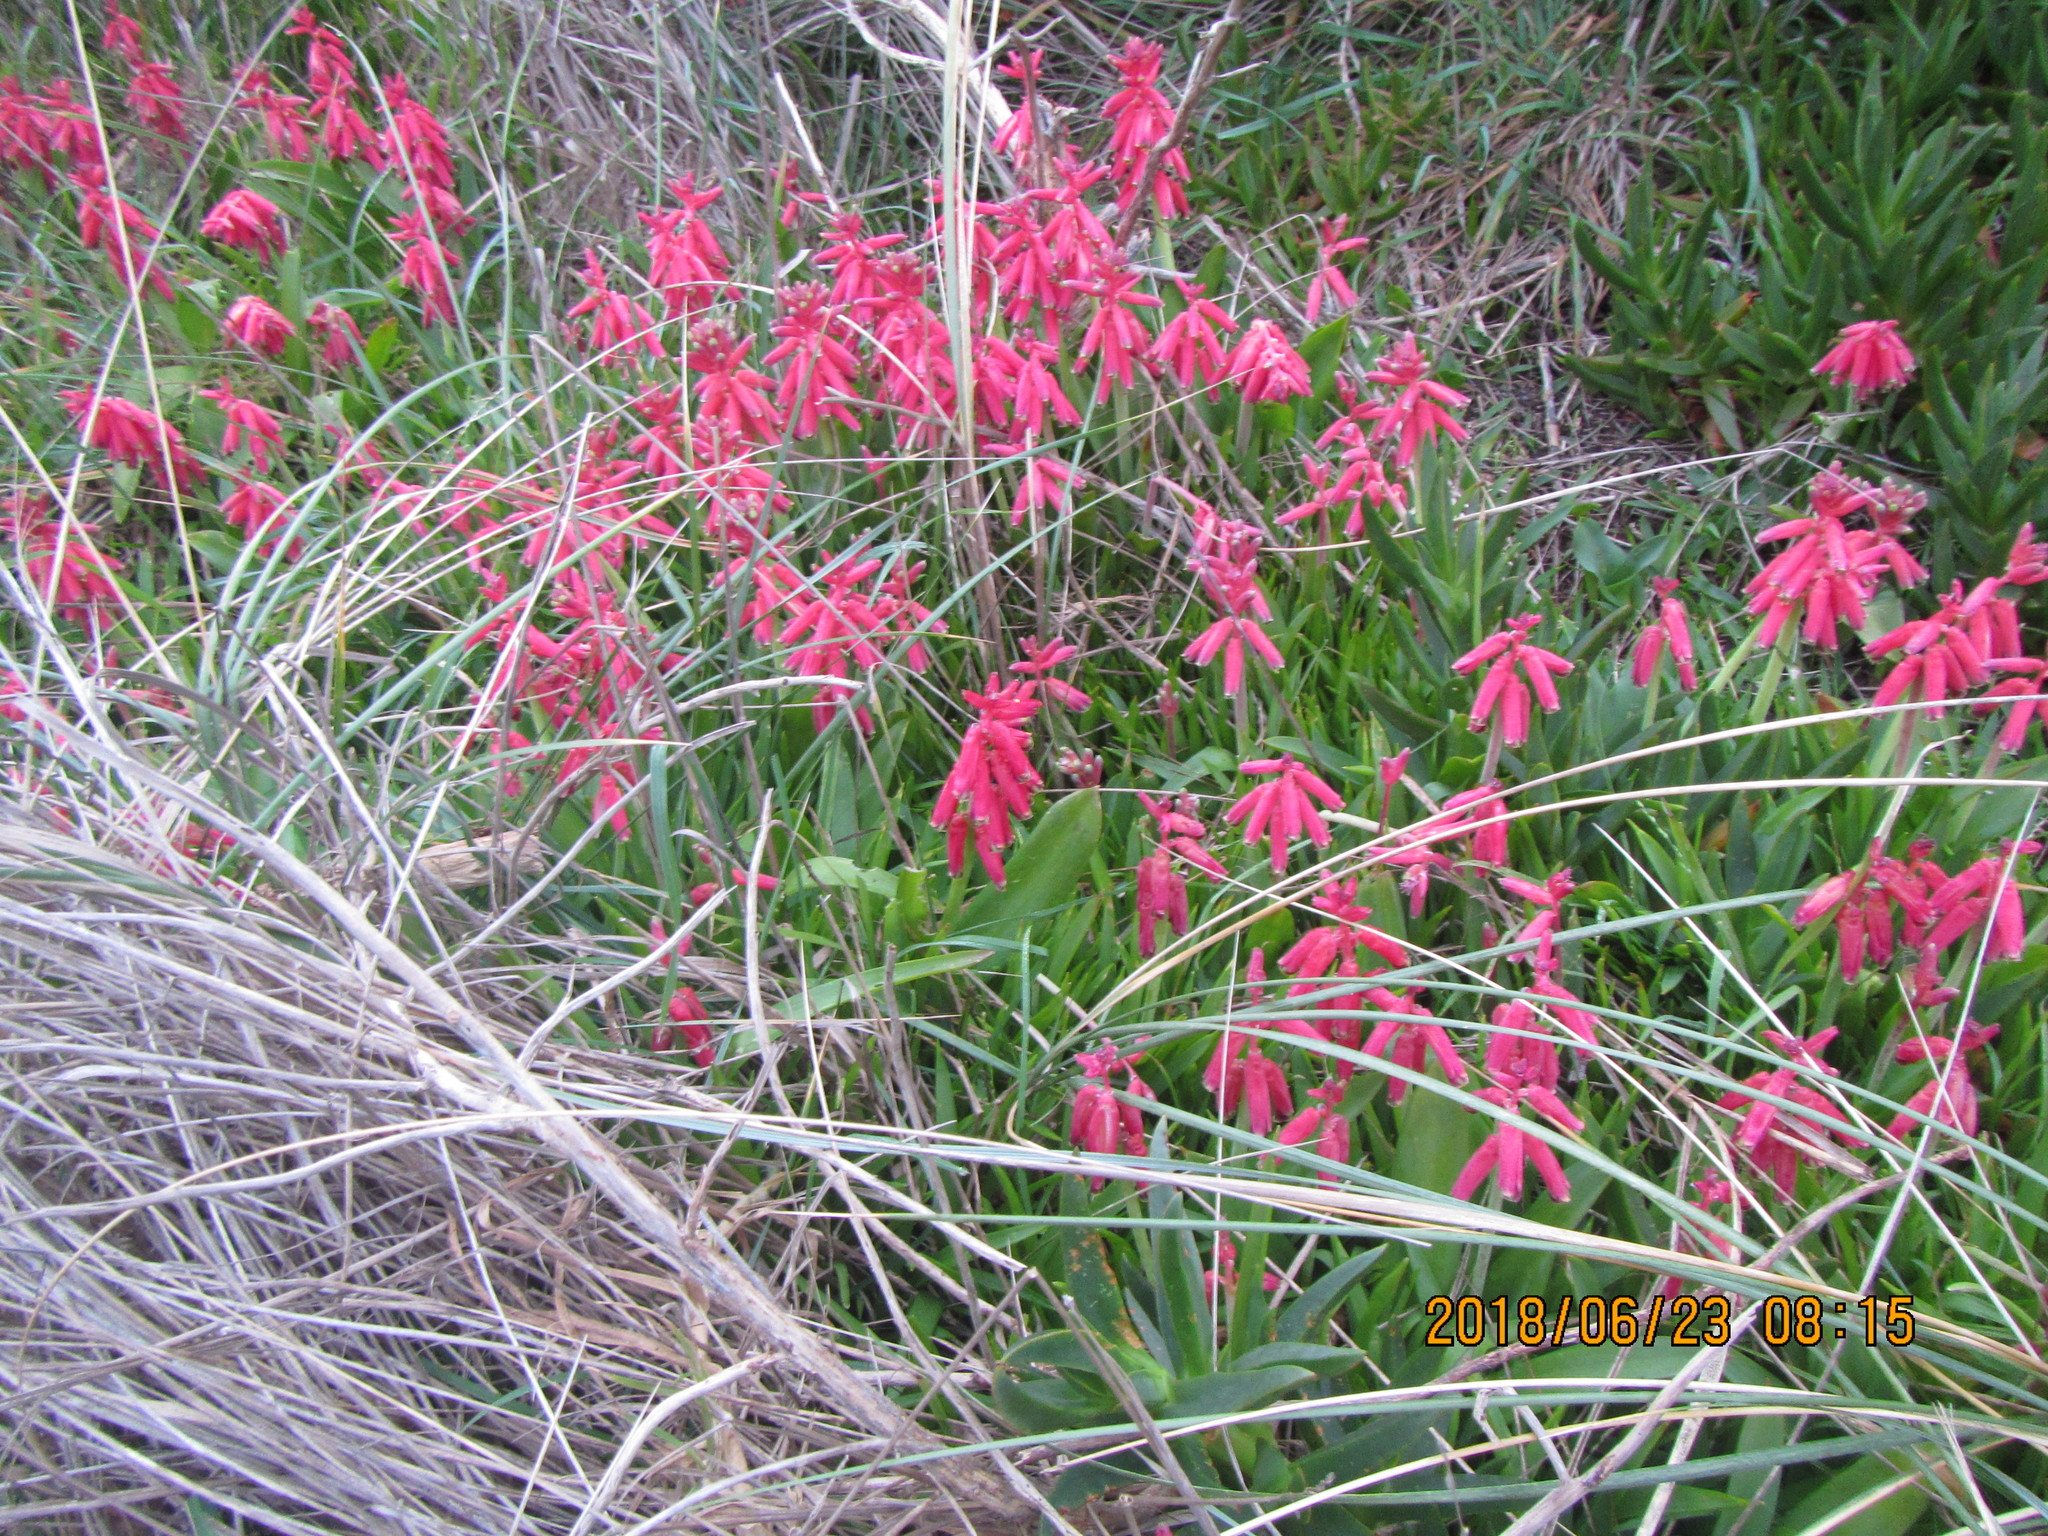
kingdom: Plantae
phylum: Tracheophyta
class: Liliopsida
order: Asparagales
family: Asparagaceae
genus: Lachenalia
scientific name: Lachenalia bulbifera
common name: Red lachenalia
